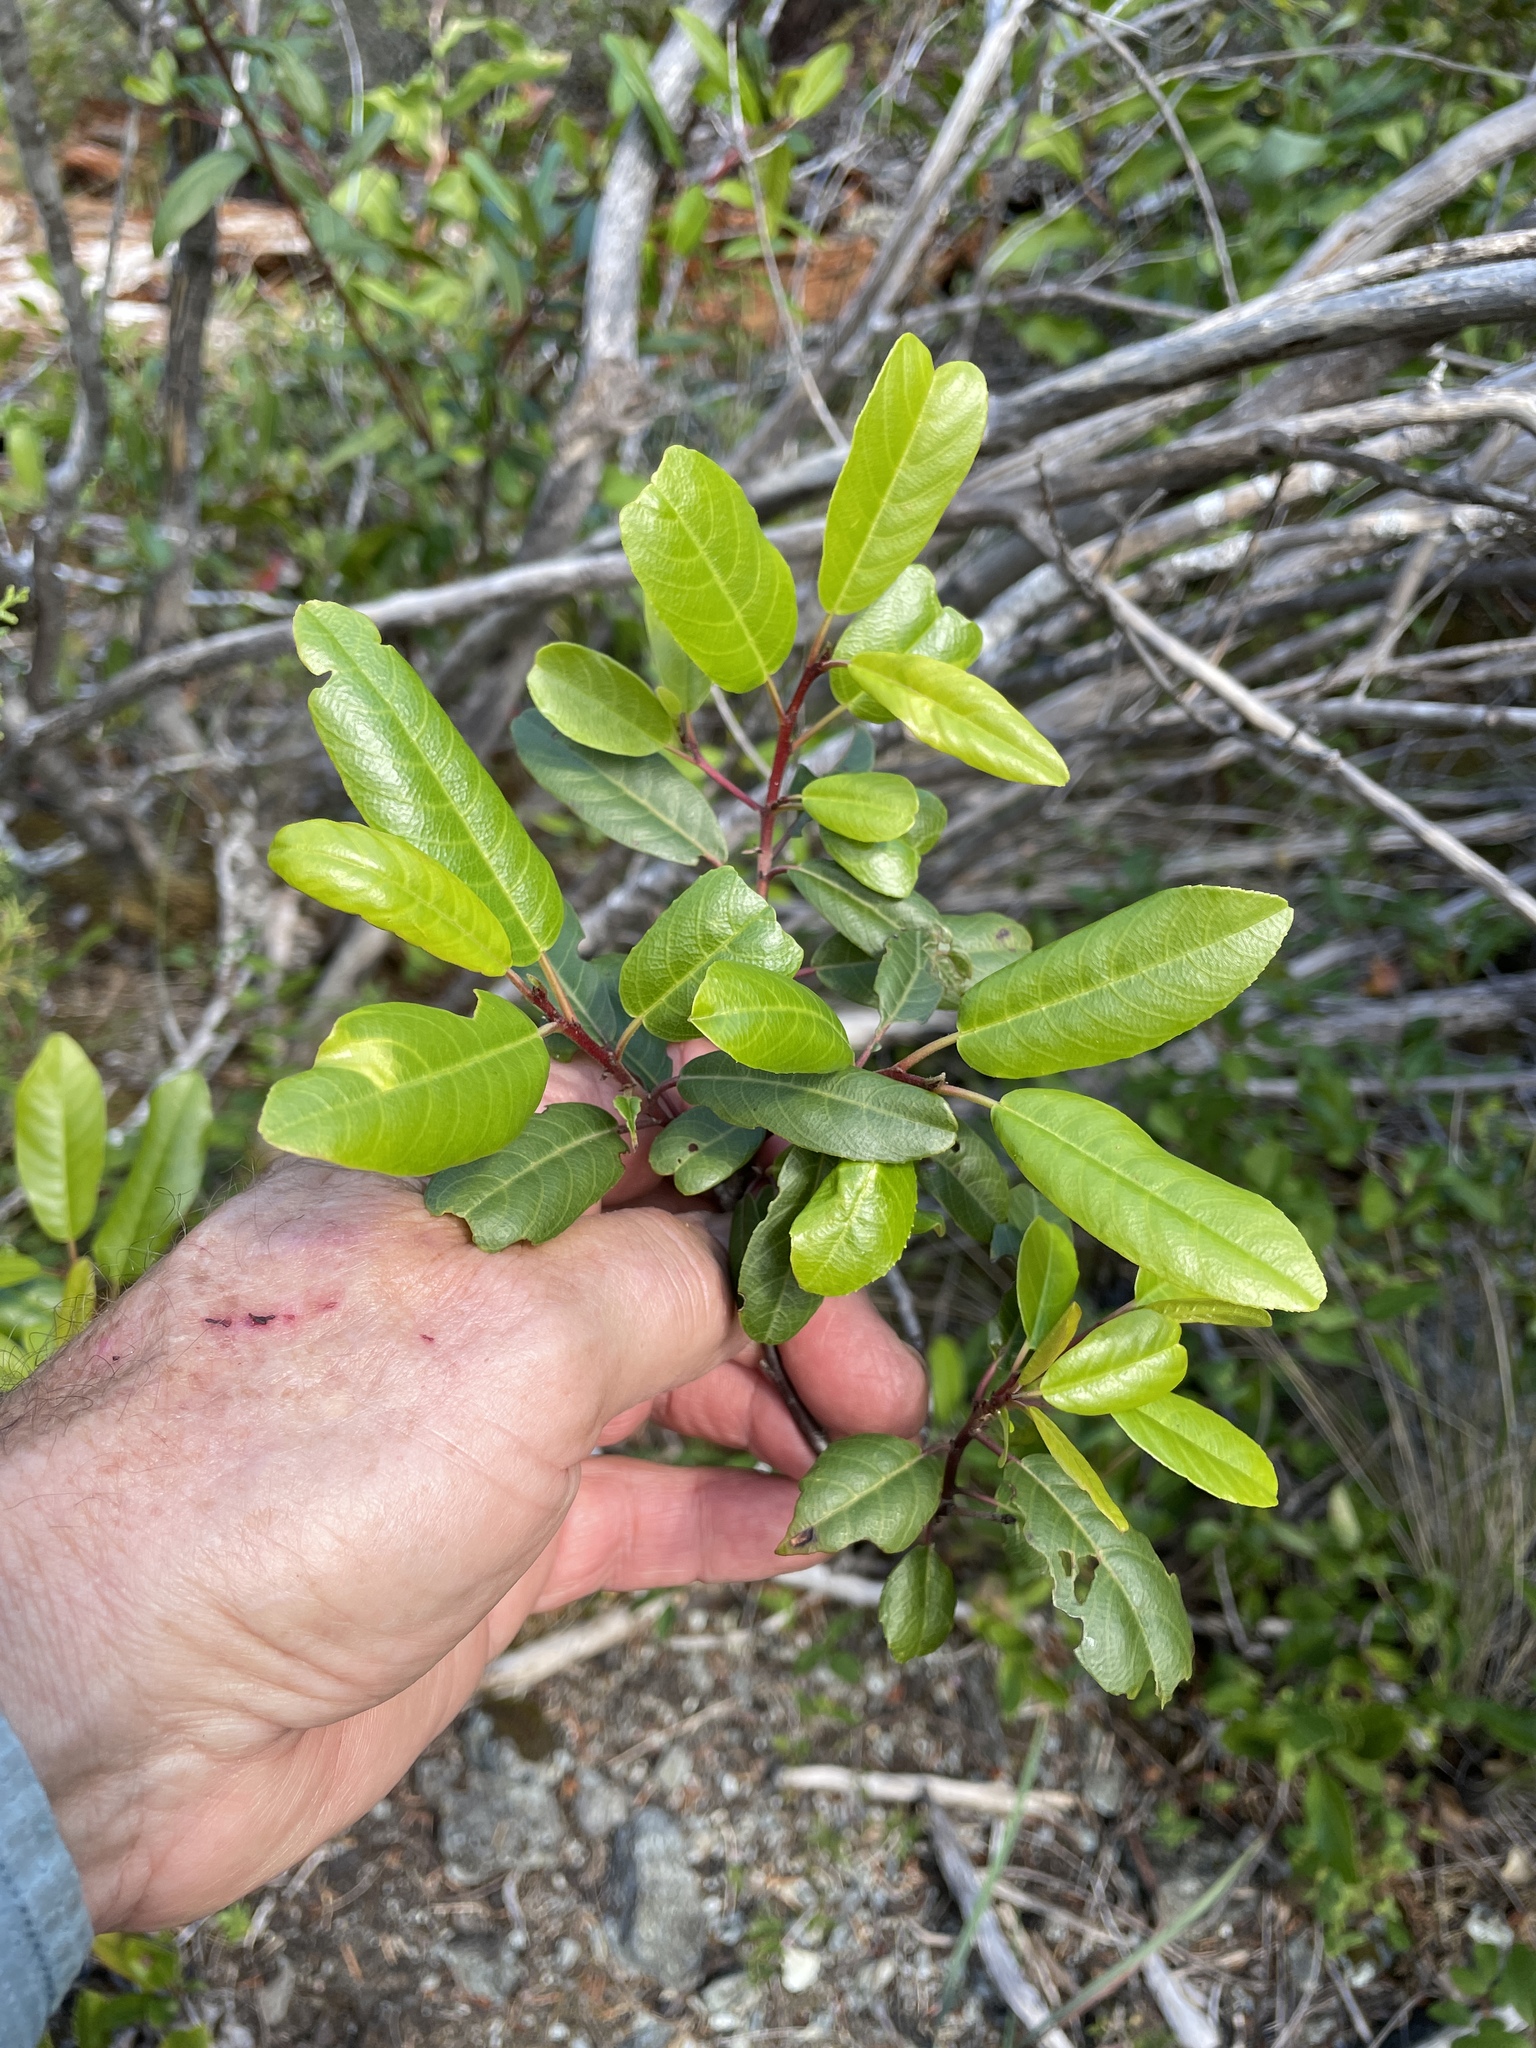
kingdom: Plantae
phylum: Tracheophyta
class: Magnoliopsida
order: Rosales
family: Rhamnaceae
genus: Frangula
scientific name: Frangula californica
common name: California buckthorn
